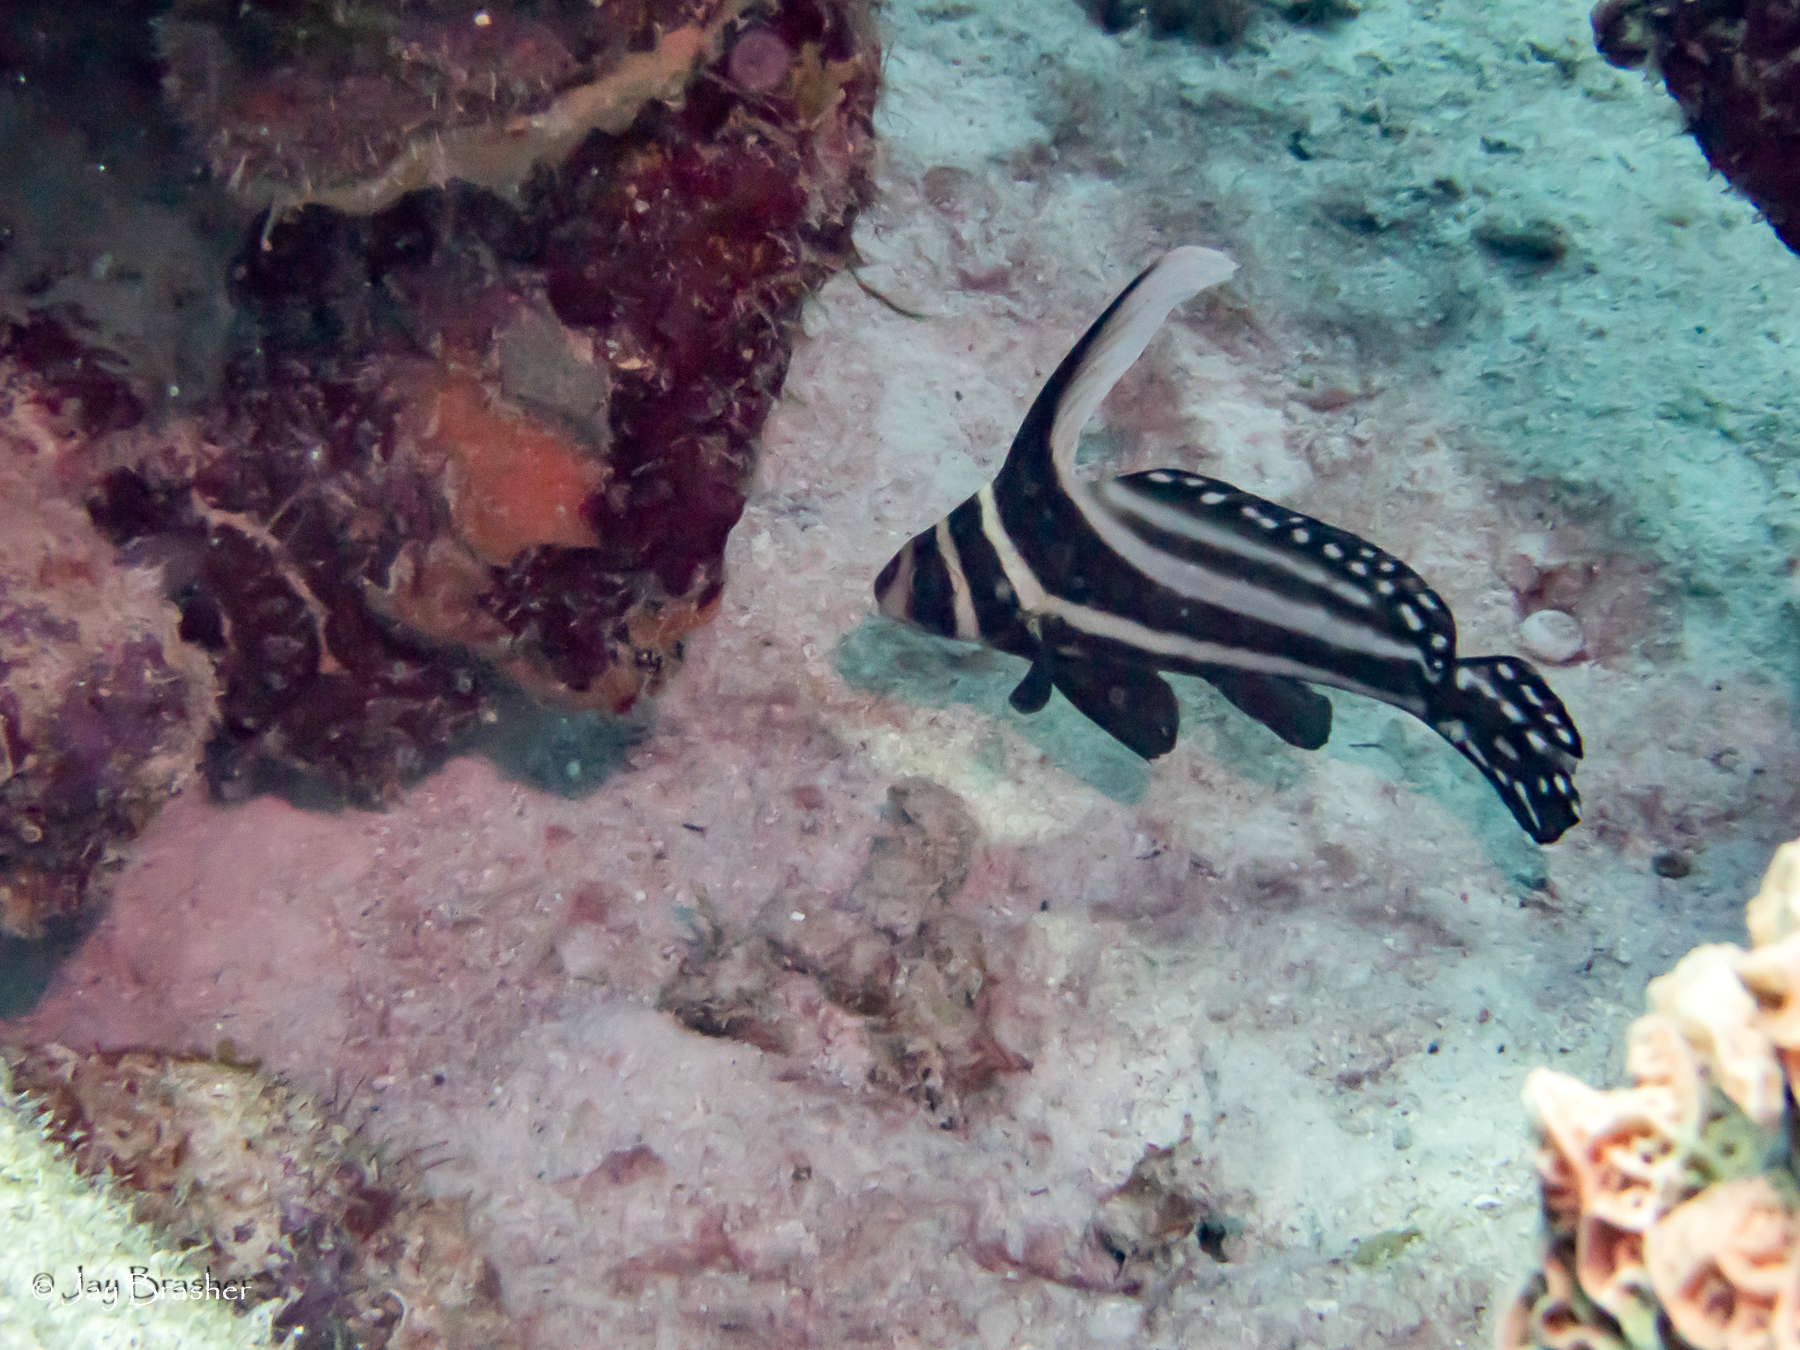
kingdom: Animalia
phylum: Chordata
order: Perciformes
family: Sciaenidae
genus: Equetus
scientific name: Equetus punctatus
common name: Spotted drum
